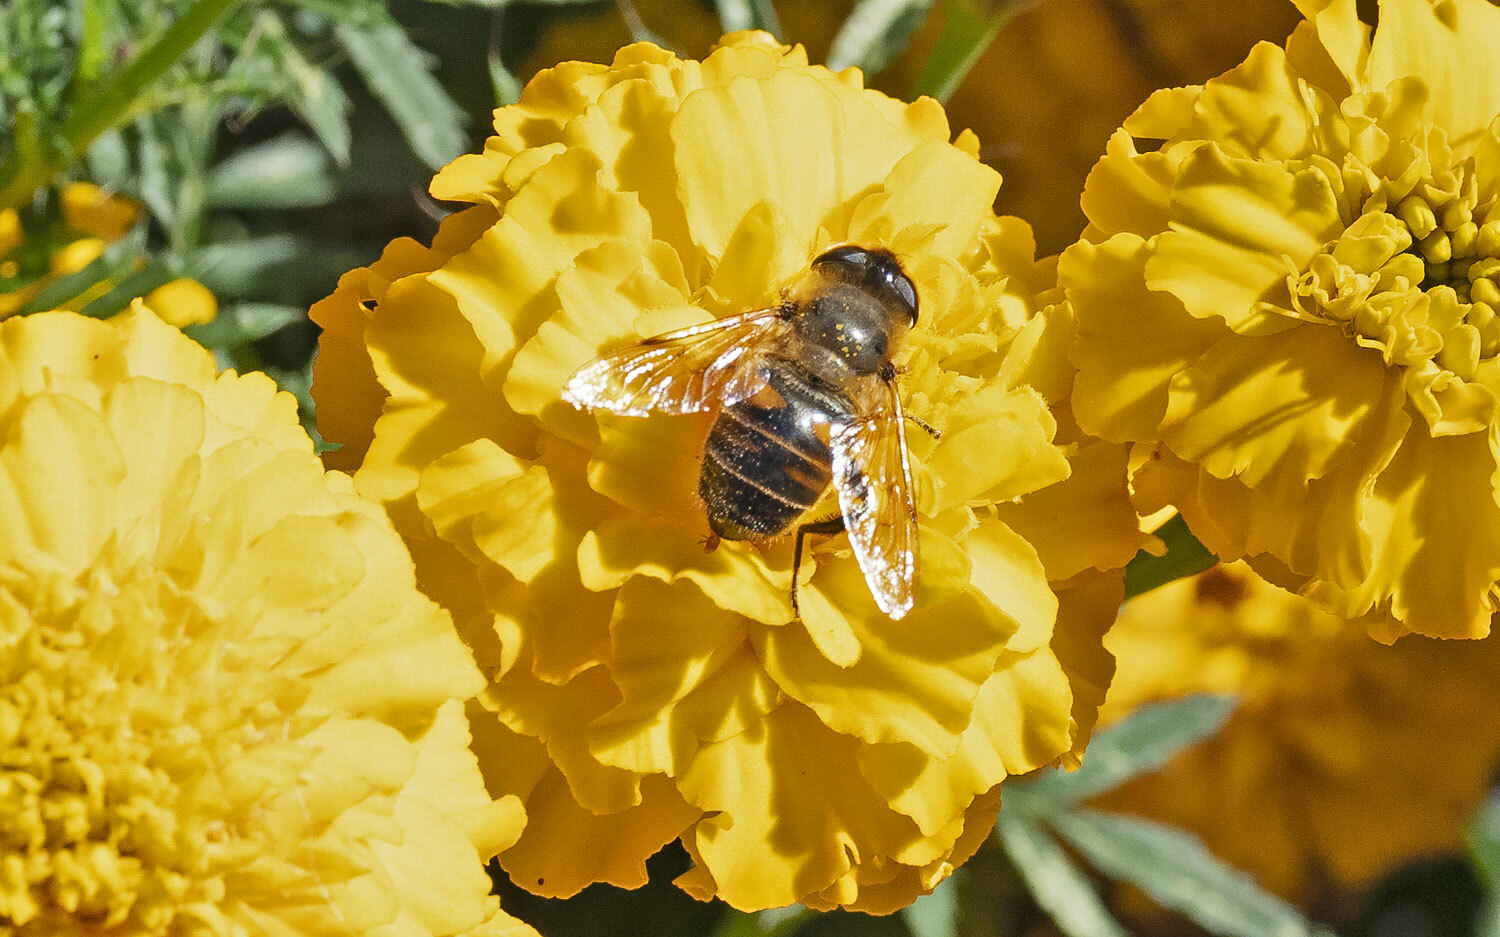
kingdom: Animalia
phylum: Arthropoda
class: Insecta
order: Diptera
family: Syrphidae
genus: Eristalis
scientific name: Eristalis tenax
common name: Drone fly
